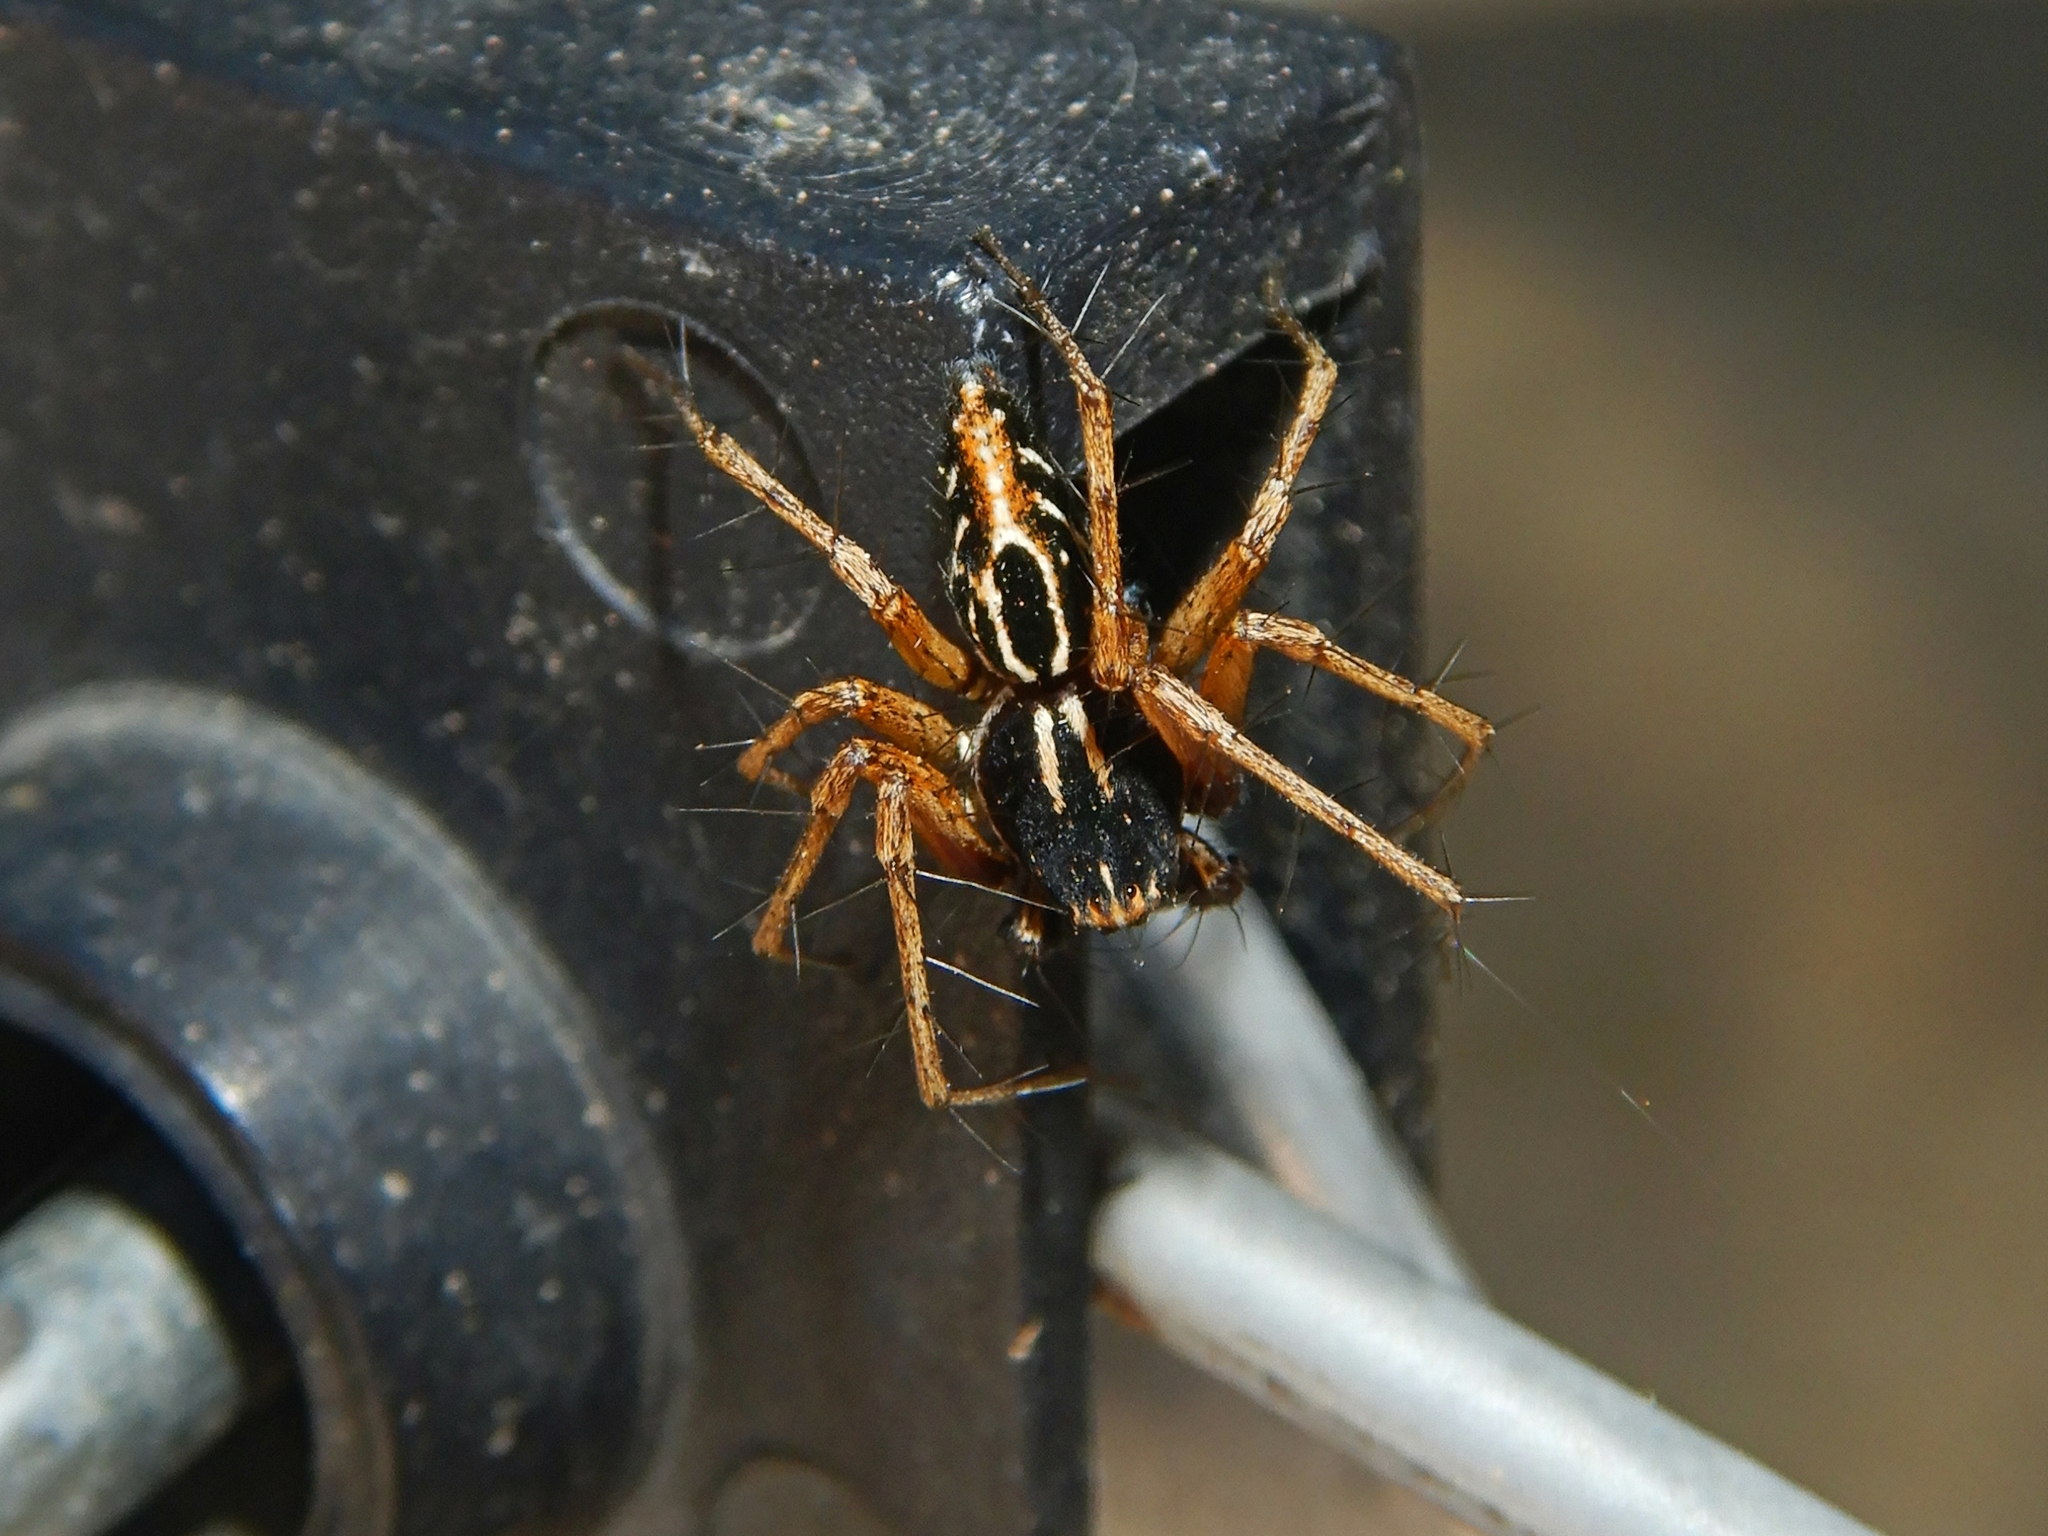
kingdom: Animalia
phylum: Arthropoda
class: Arachnida
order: Araneae
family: Oxyopidae
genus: Oxyopes
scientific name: Oxyopes heterophthalmus
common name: Lynx spider
